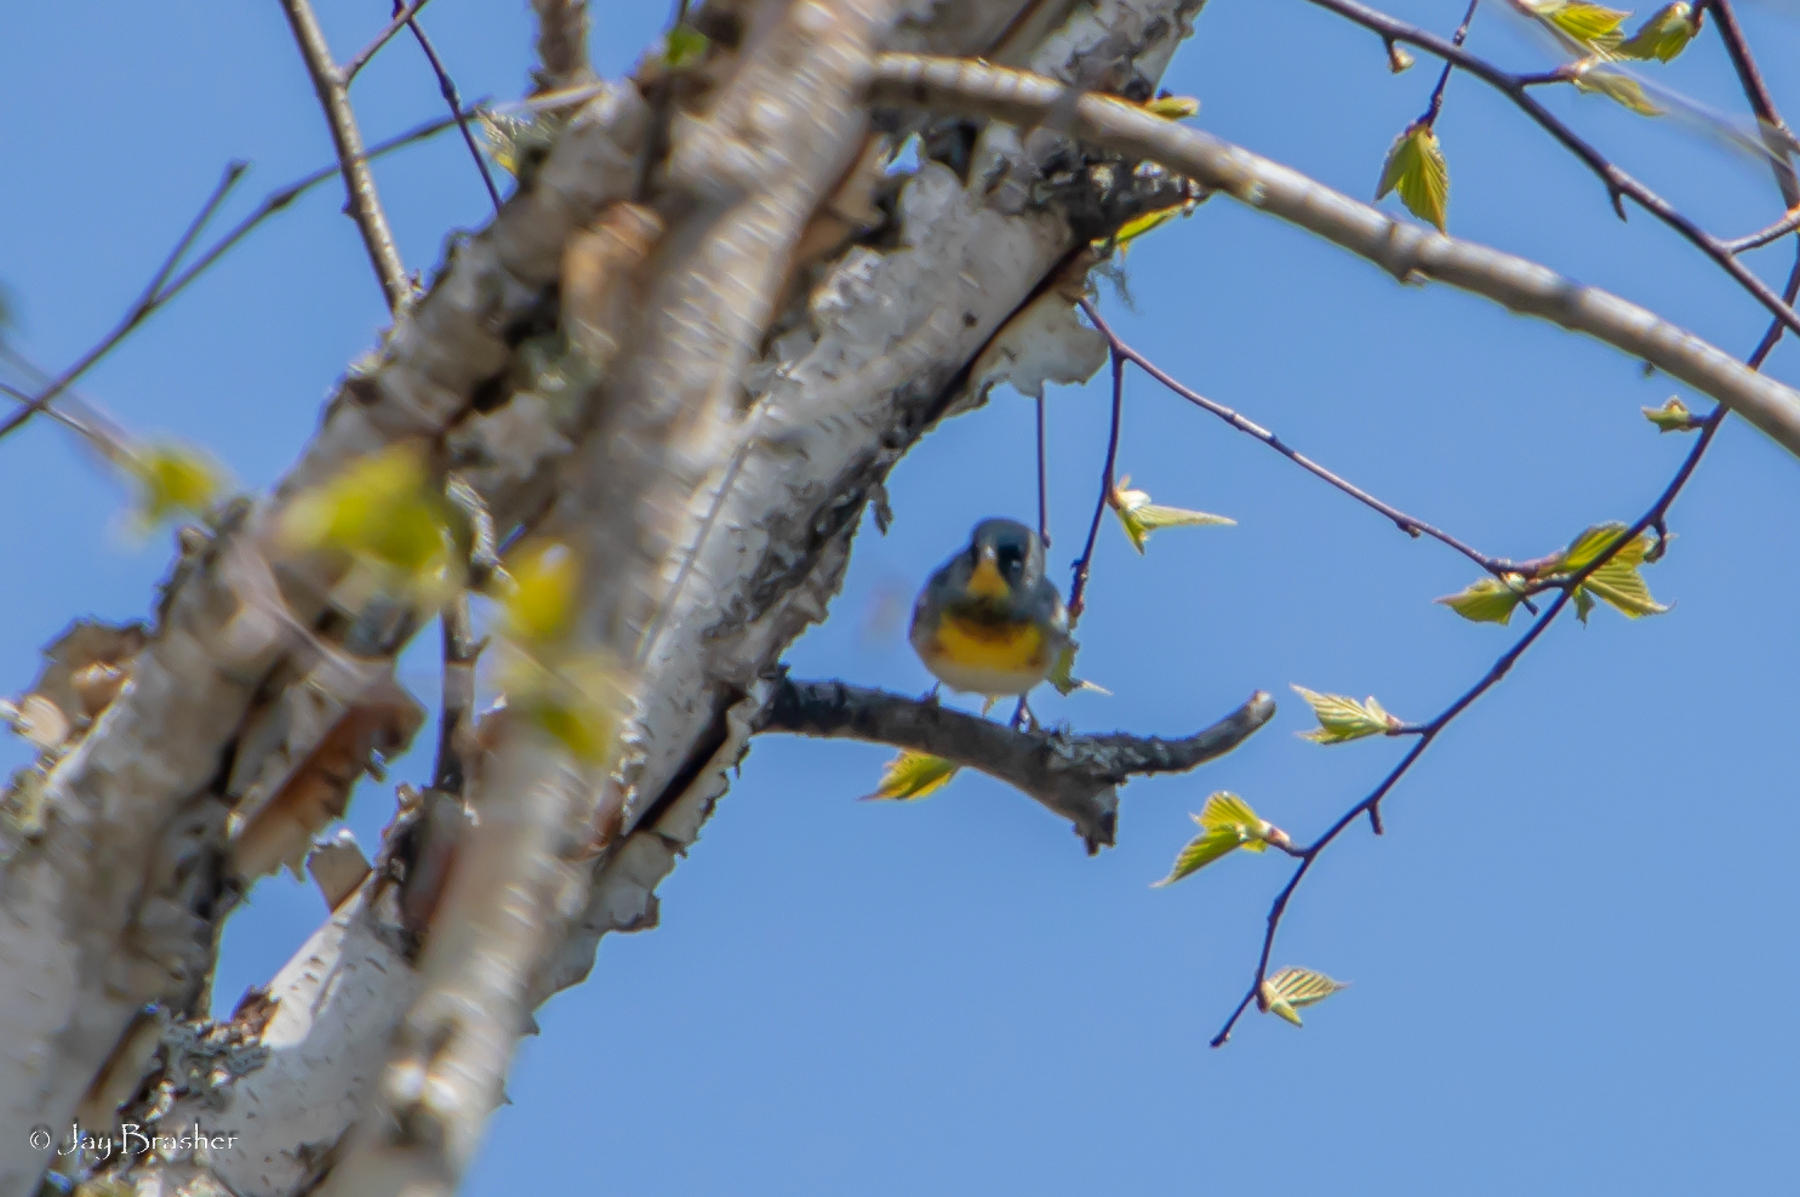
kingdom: Animalia
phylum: Chordata
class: Aves
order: Passeriformes
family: Parulidae
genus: Setophaga
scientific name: Setophaga americana
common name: Northern parula
